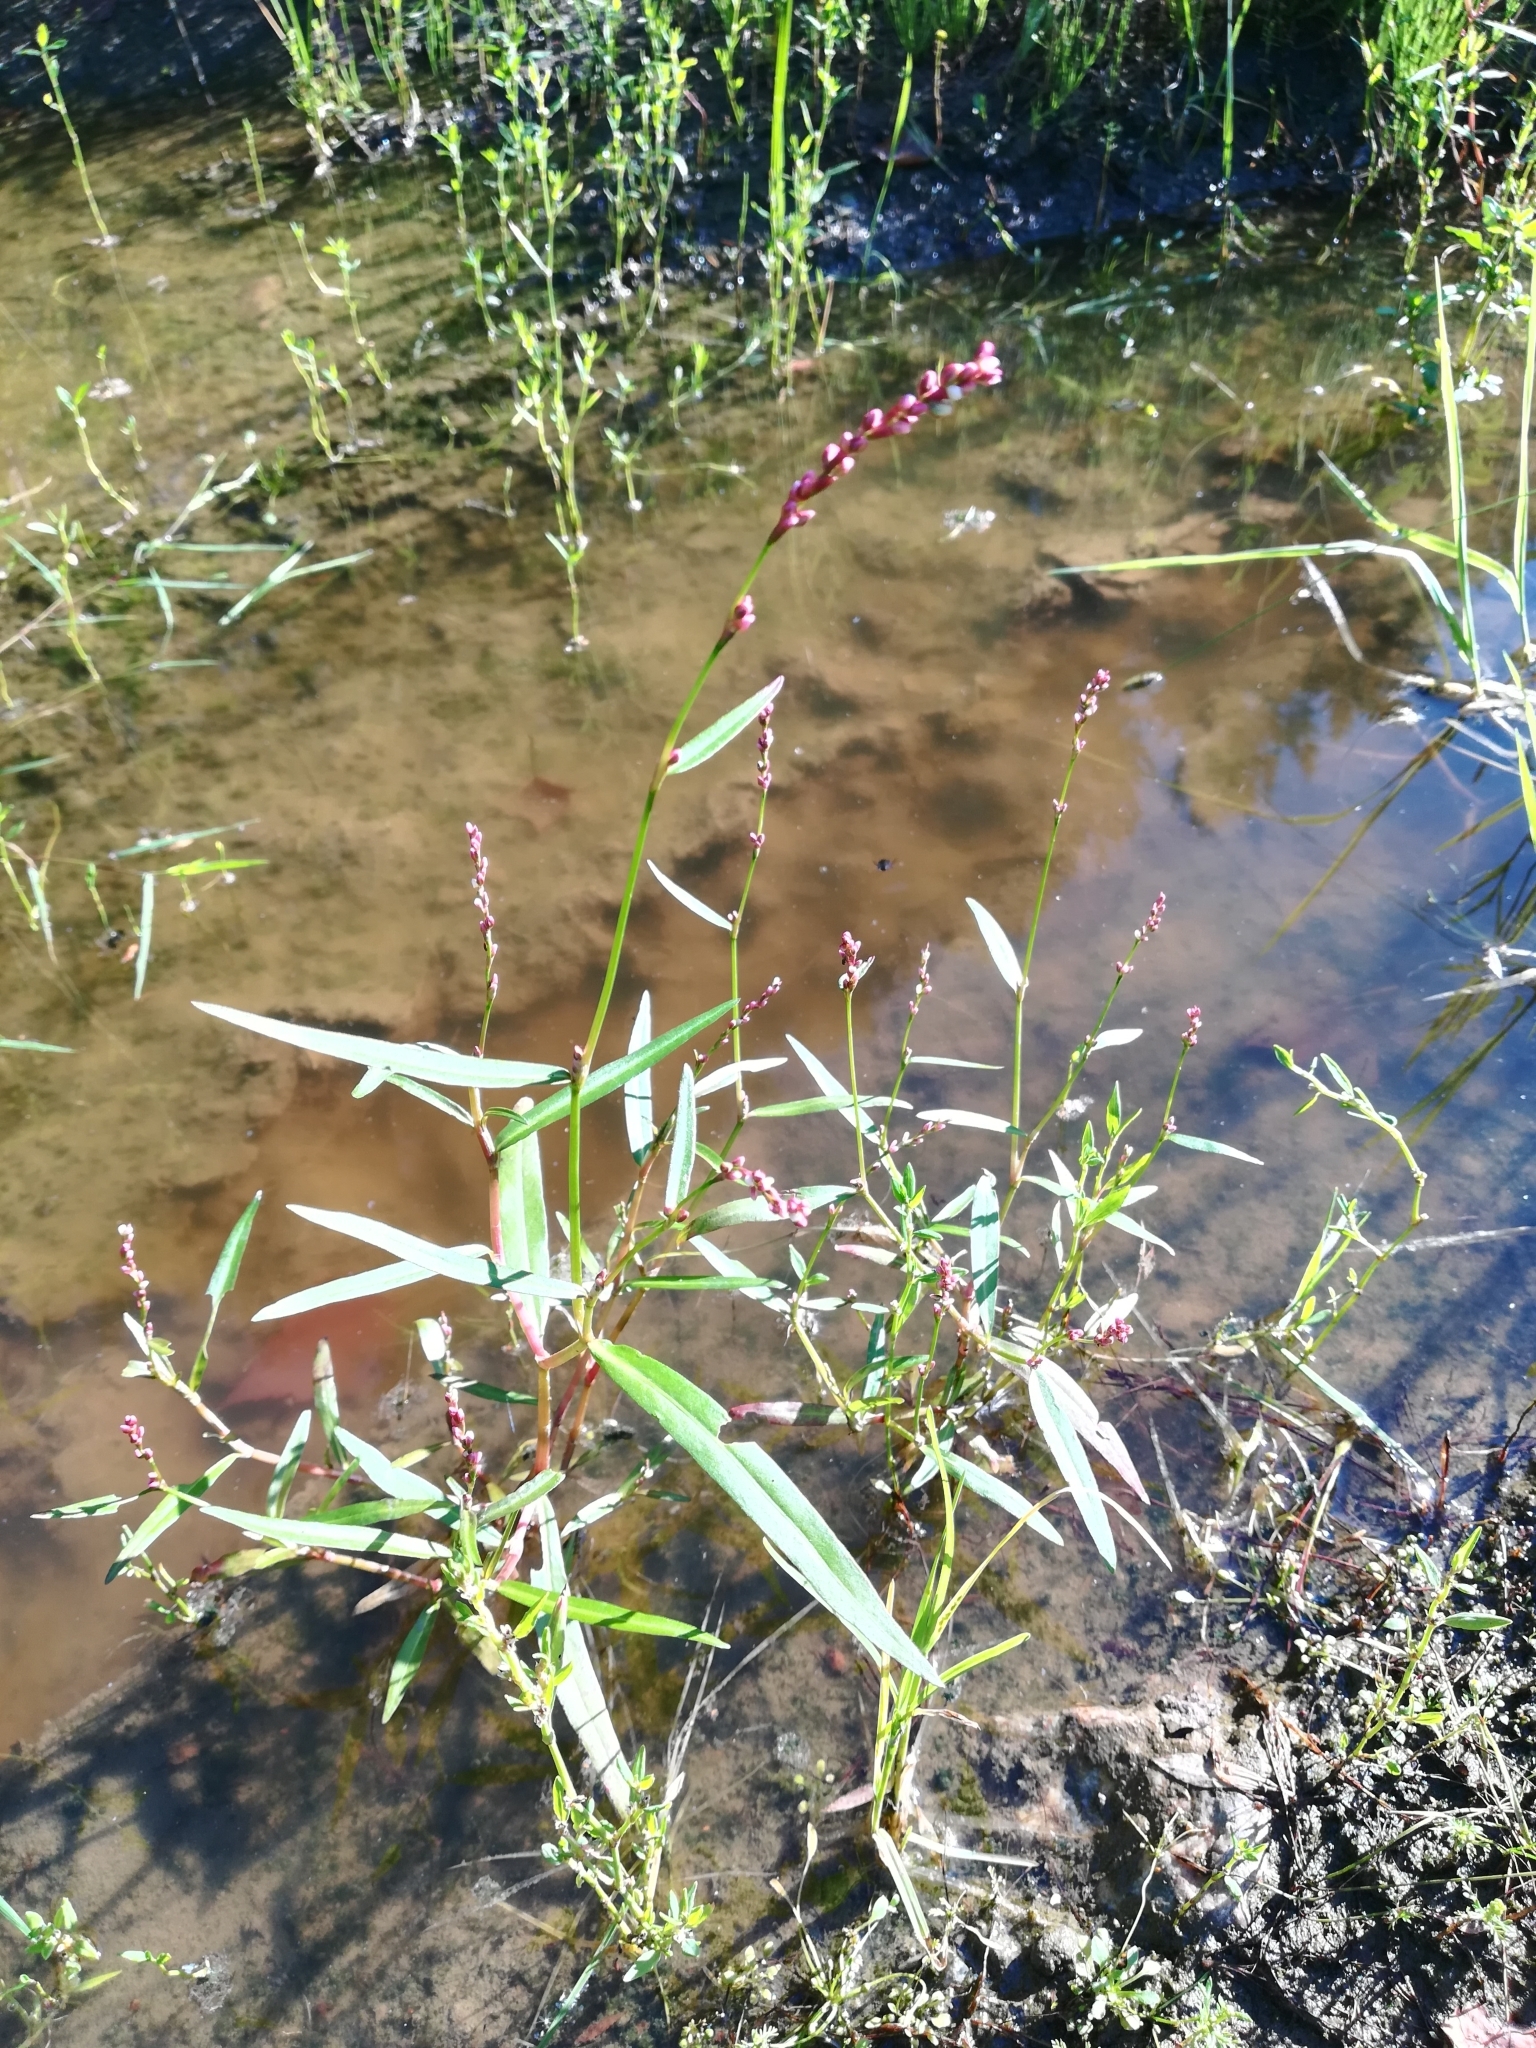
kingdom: Plantae
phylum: Tracheophyta
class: Magnoliopsida
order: Caryophyllales
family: Polygonaceae
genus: Persicaria
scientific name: Persicaria minor
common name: Small water-pepper
